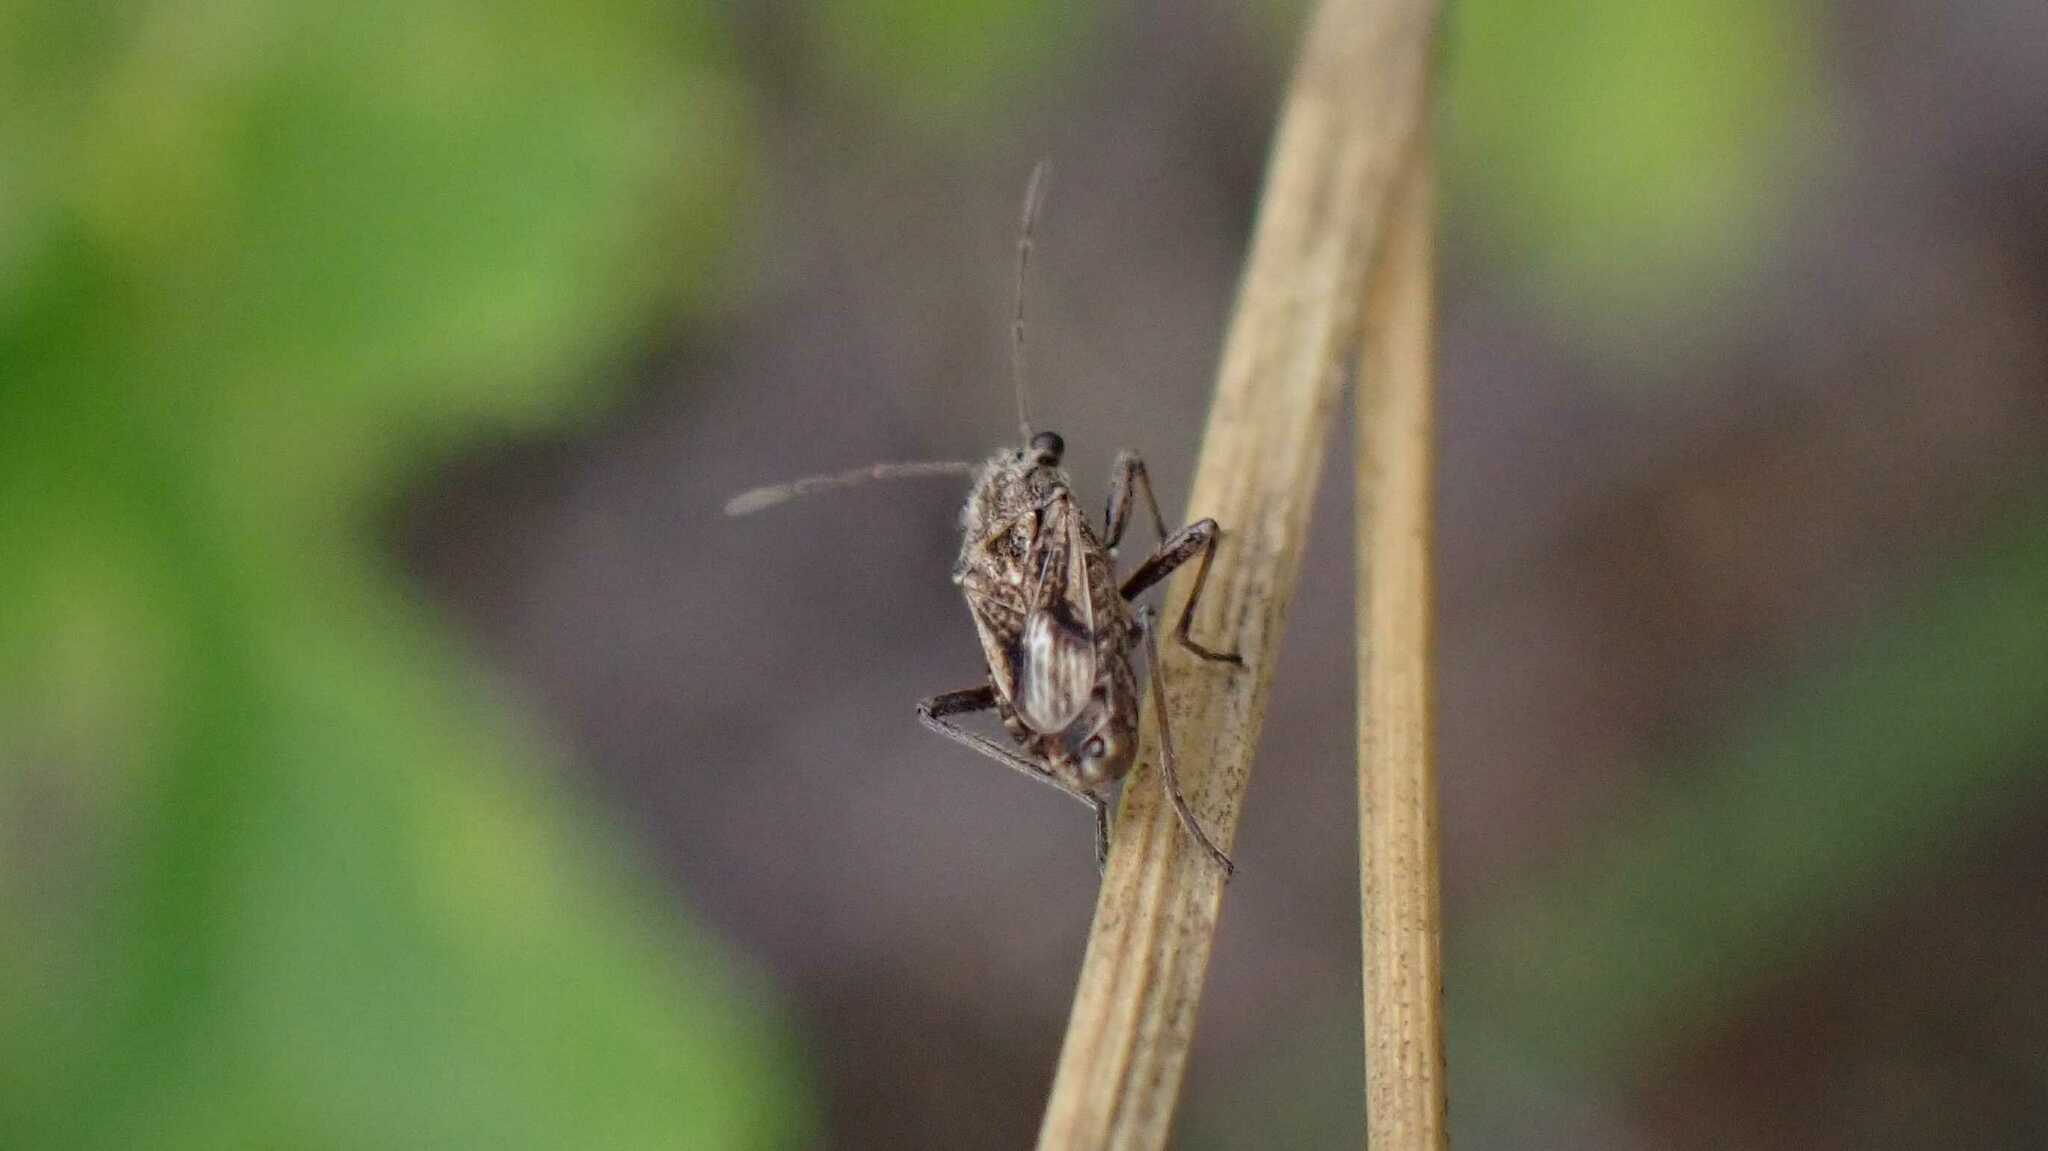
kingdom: Animalia
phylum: Arthropoda
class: Insecta
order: Hemiptera
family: Lygaeidae
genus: Ortholomus
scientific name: Ortholomus punctipennis
